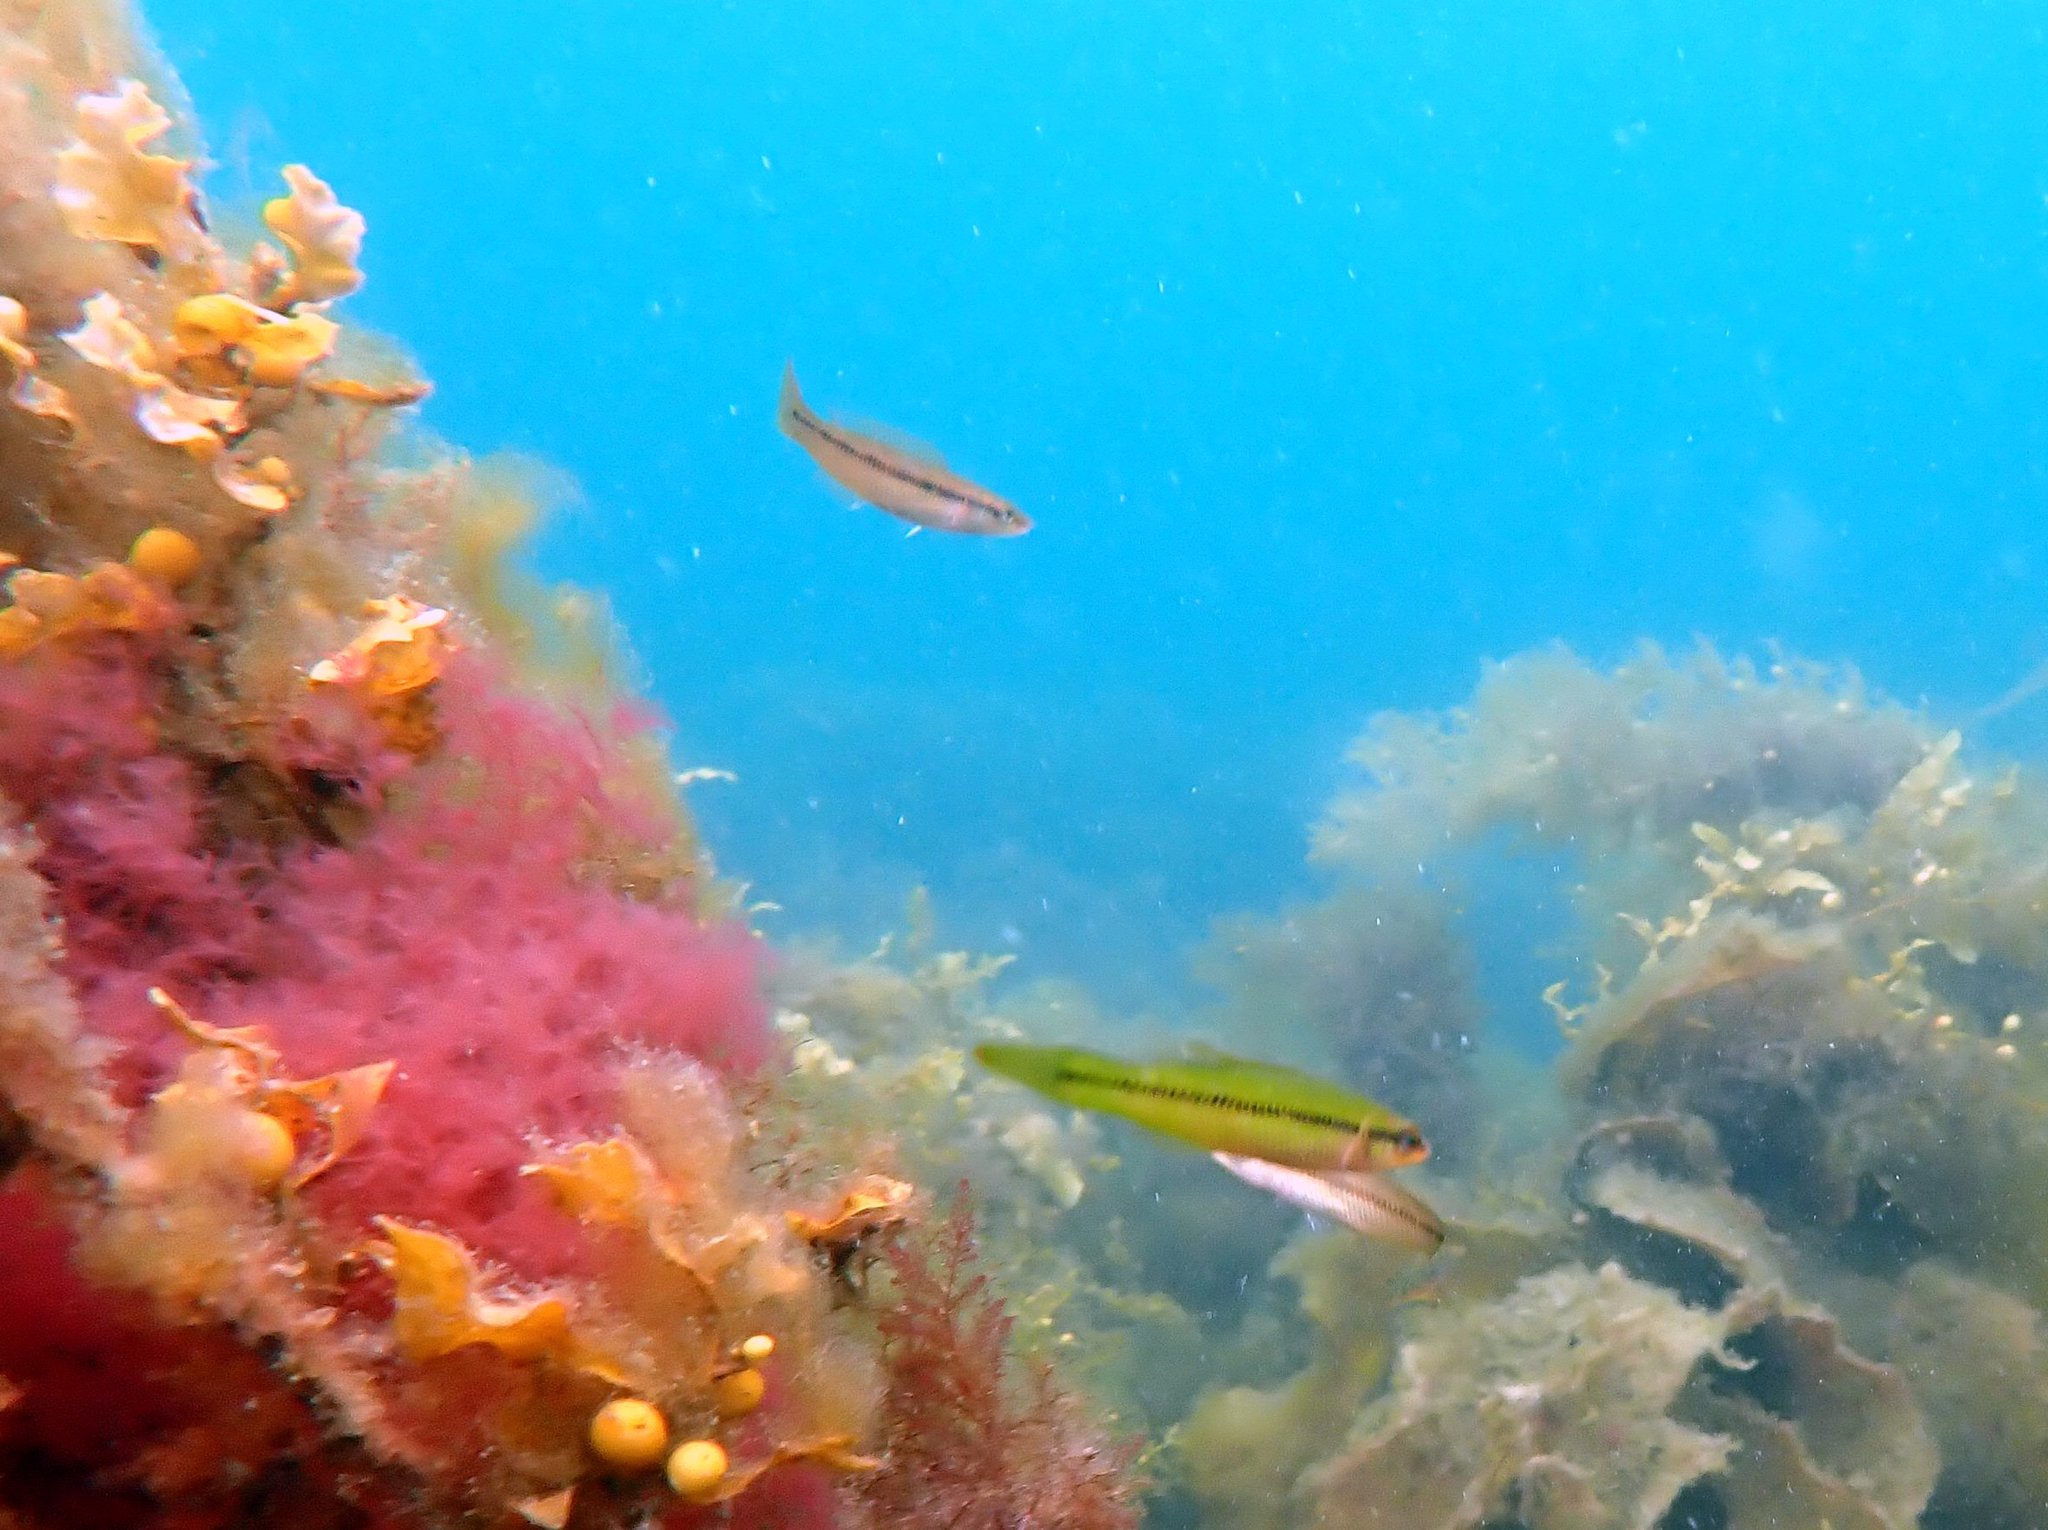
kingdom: Animalia
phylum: Chordata
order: Perciformes
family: Odacidae
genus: Neoodax
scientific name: Neoodax balteatus
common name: Ground mullet
